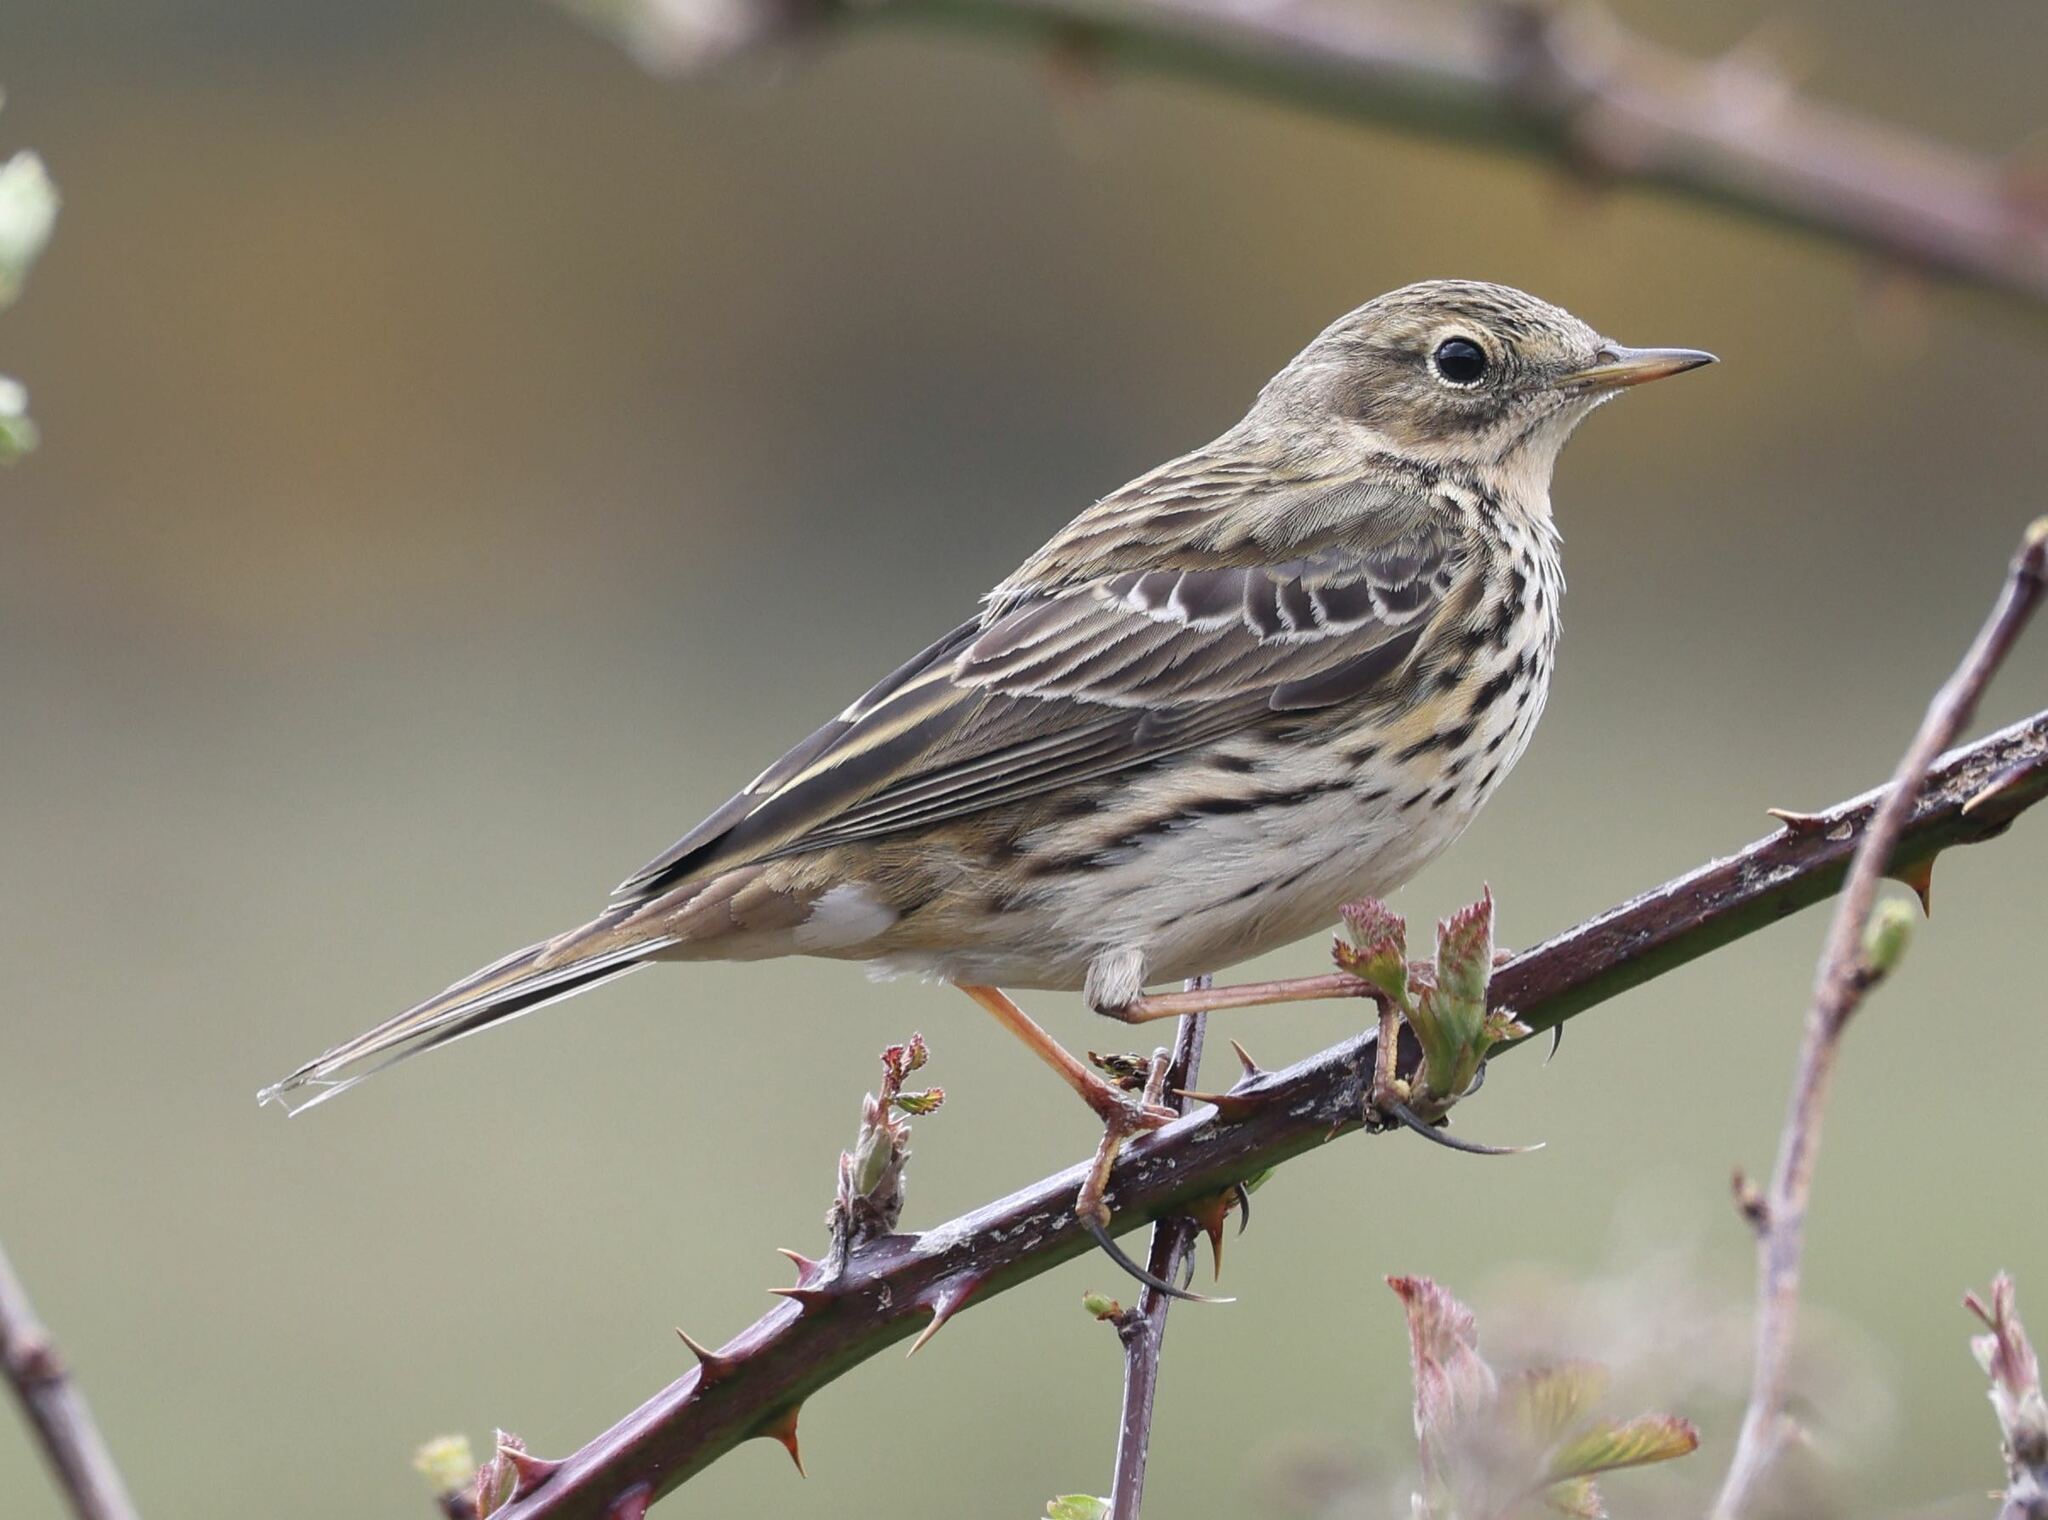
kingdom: Animalia
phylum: Chordata
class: Aves
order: Passeriformes
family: Motacillidae
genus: Anthus
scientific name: Anthus pratensis
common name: Meadow pipit
